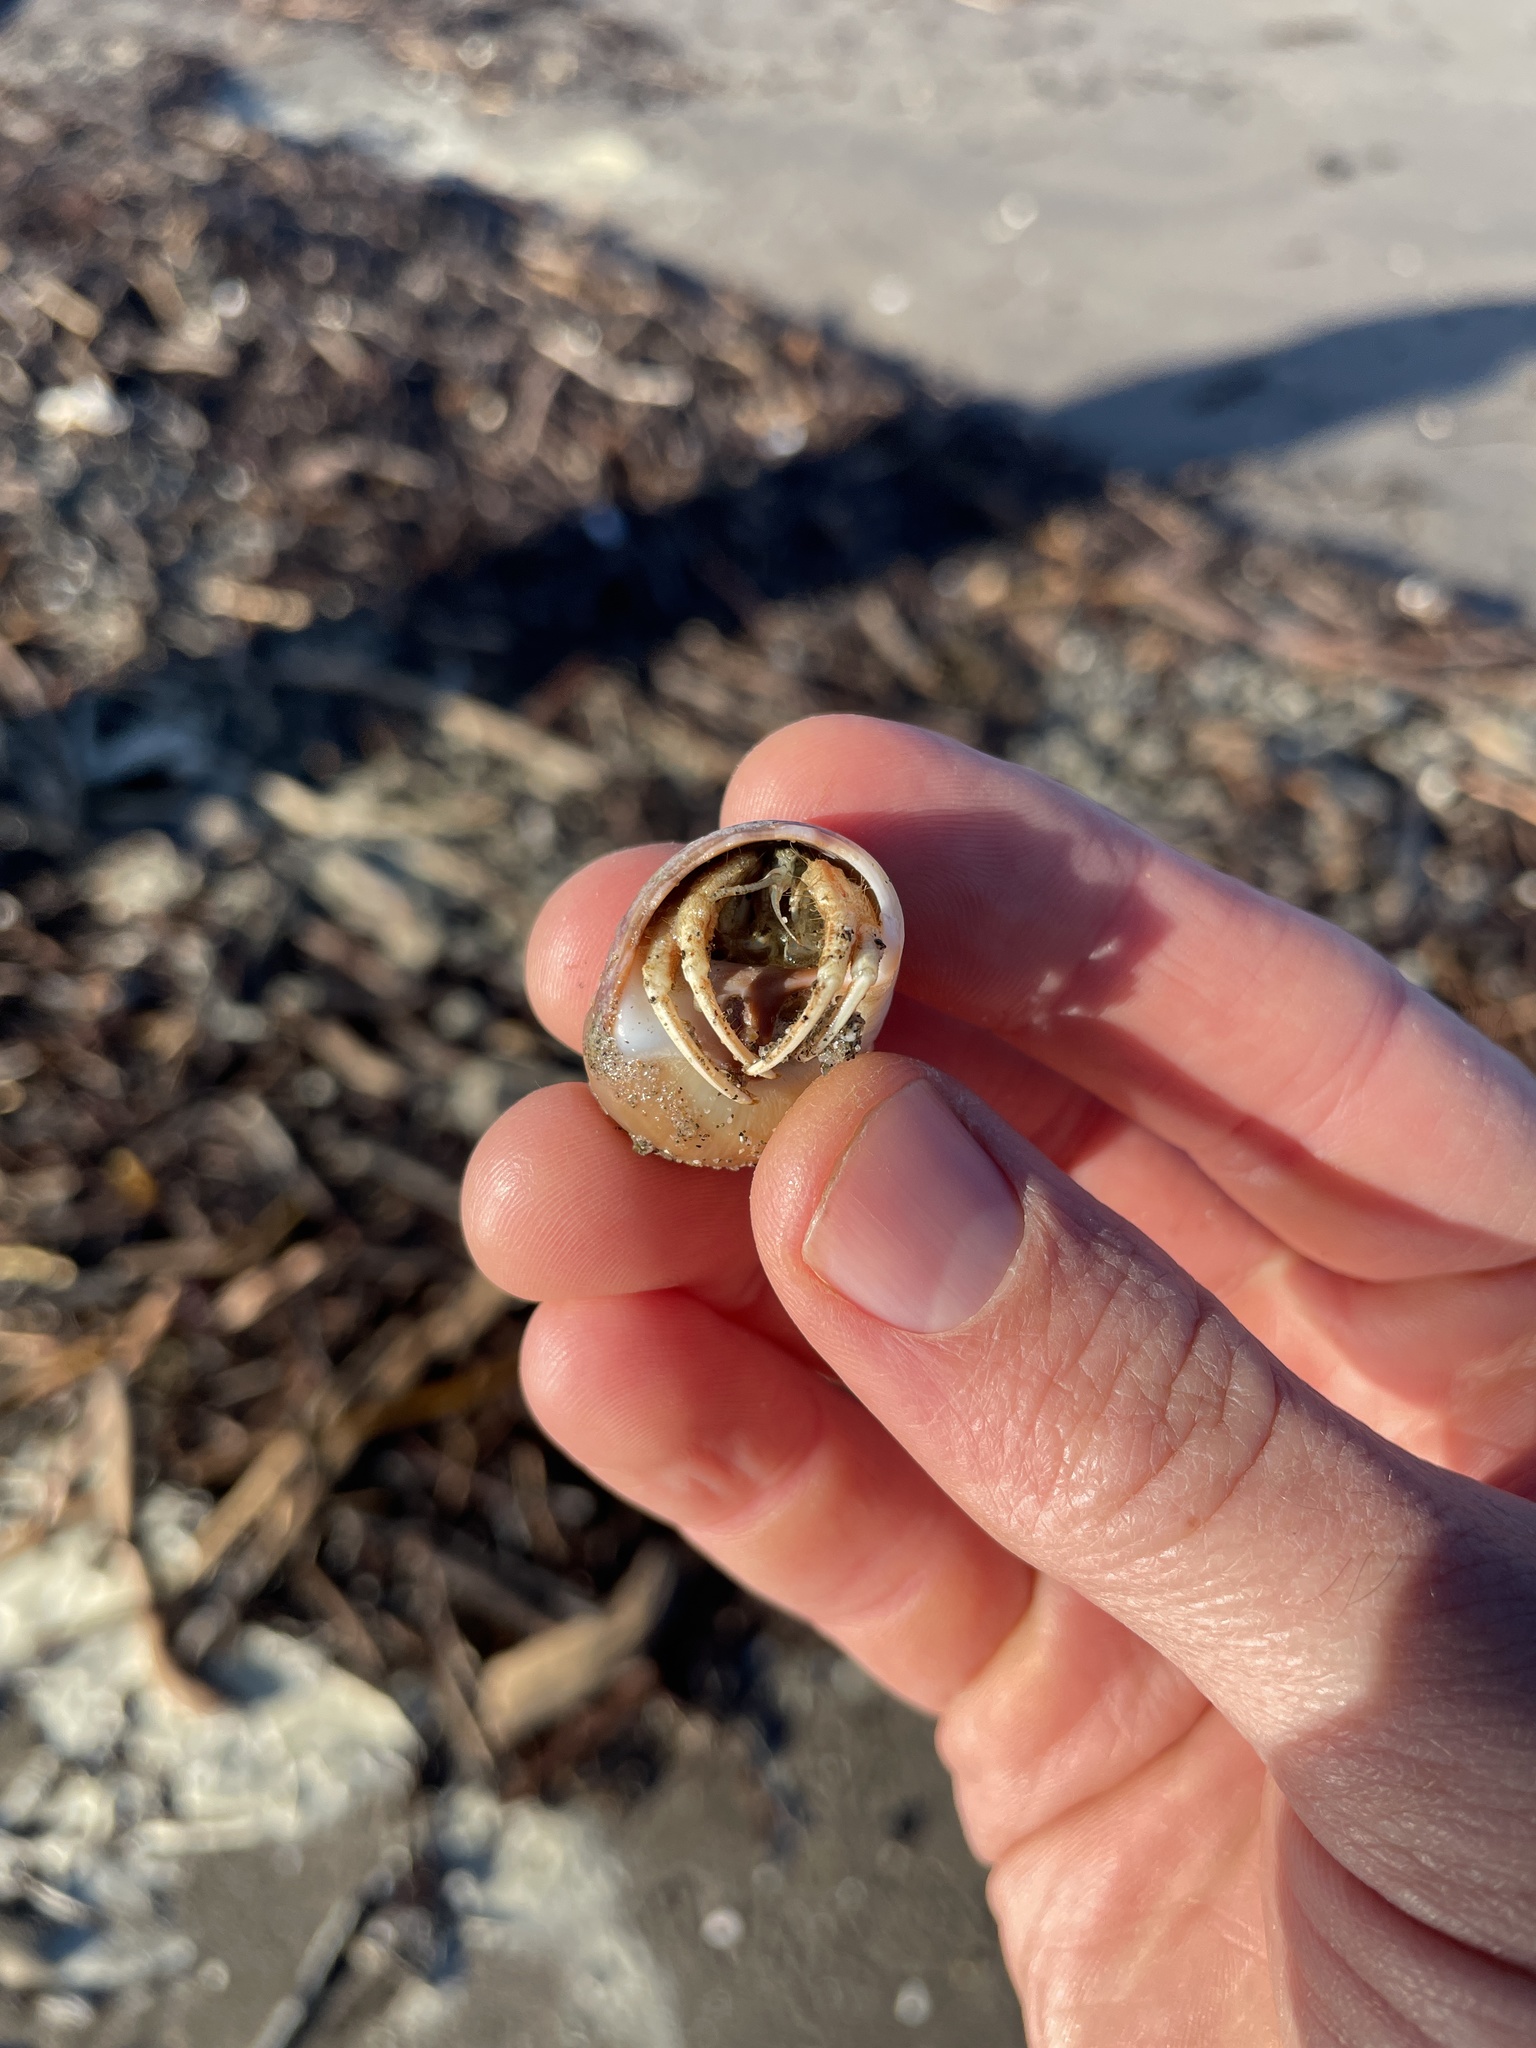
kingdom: Animalia
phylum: Arthropoda
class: Malacostraca
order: Decapoda
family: Diogenidae
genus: Isocheles
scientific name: Isocheles pilosus
